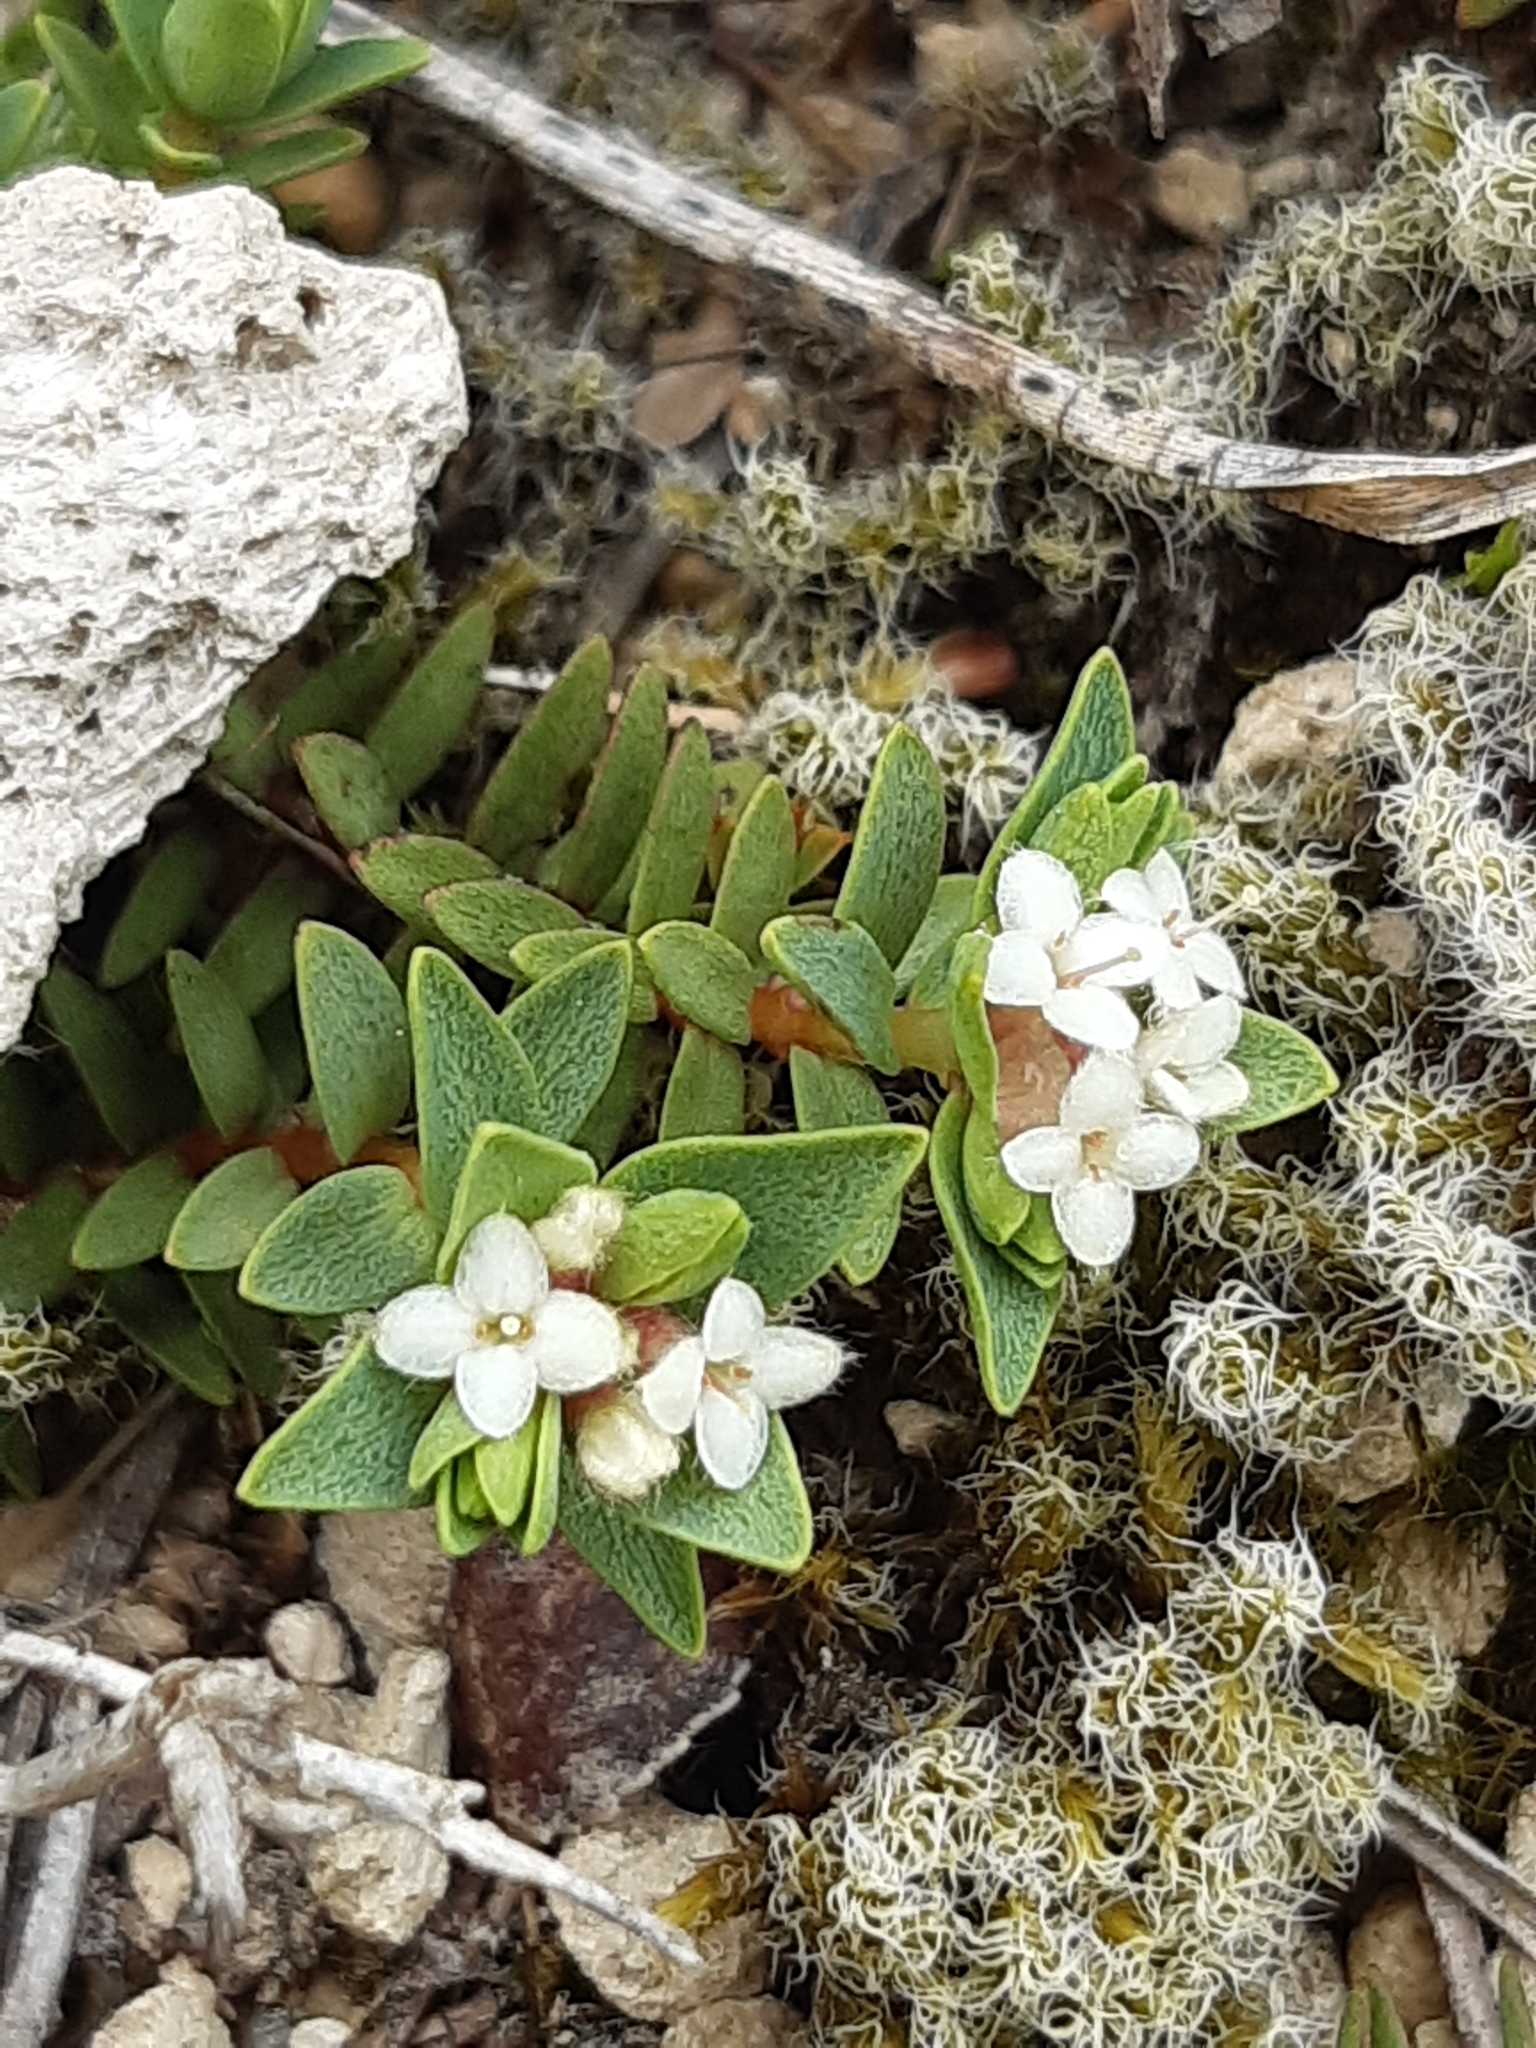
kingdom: Plantae
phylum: Tracheophyta
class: Magnoliopsida
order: Malvales
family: Thymelaeaceae
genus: Pimelea
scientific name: Pimelea prostrata
